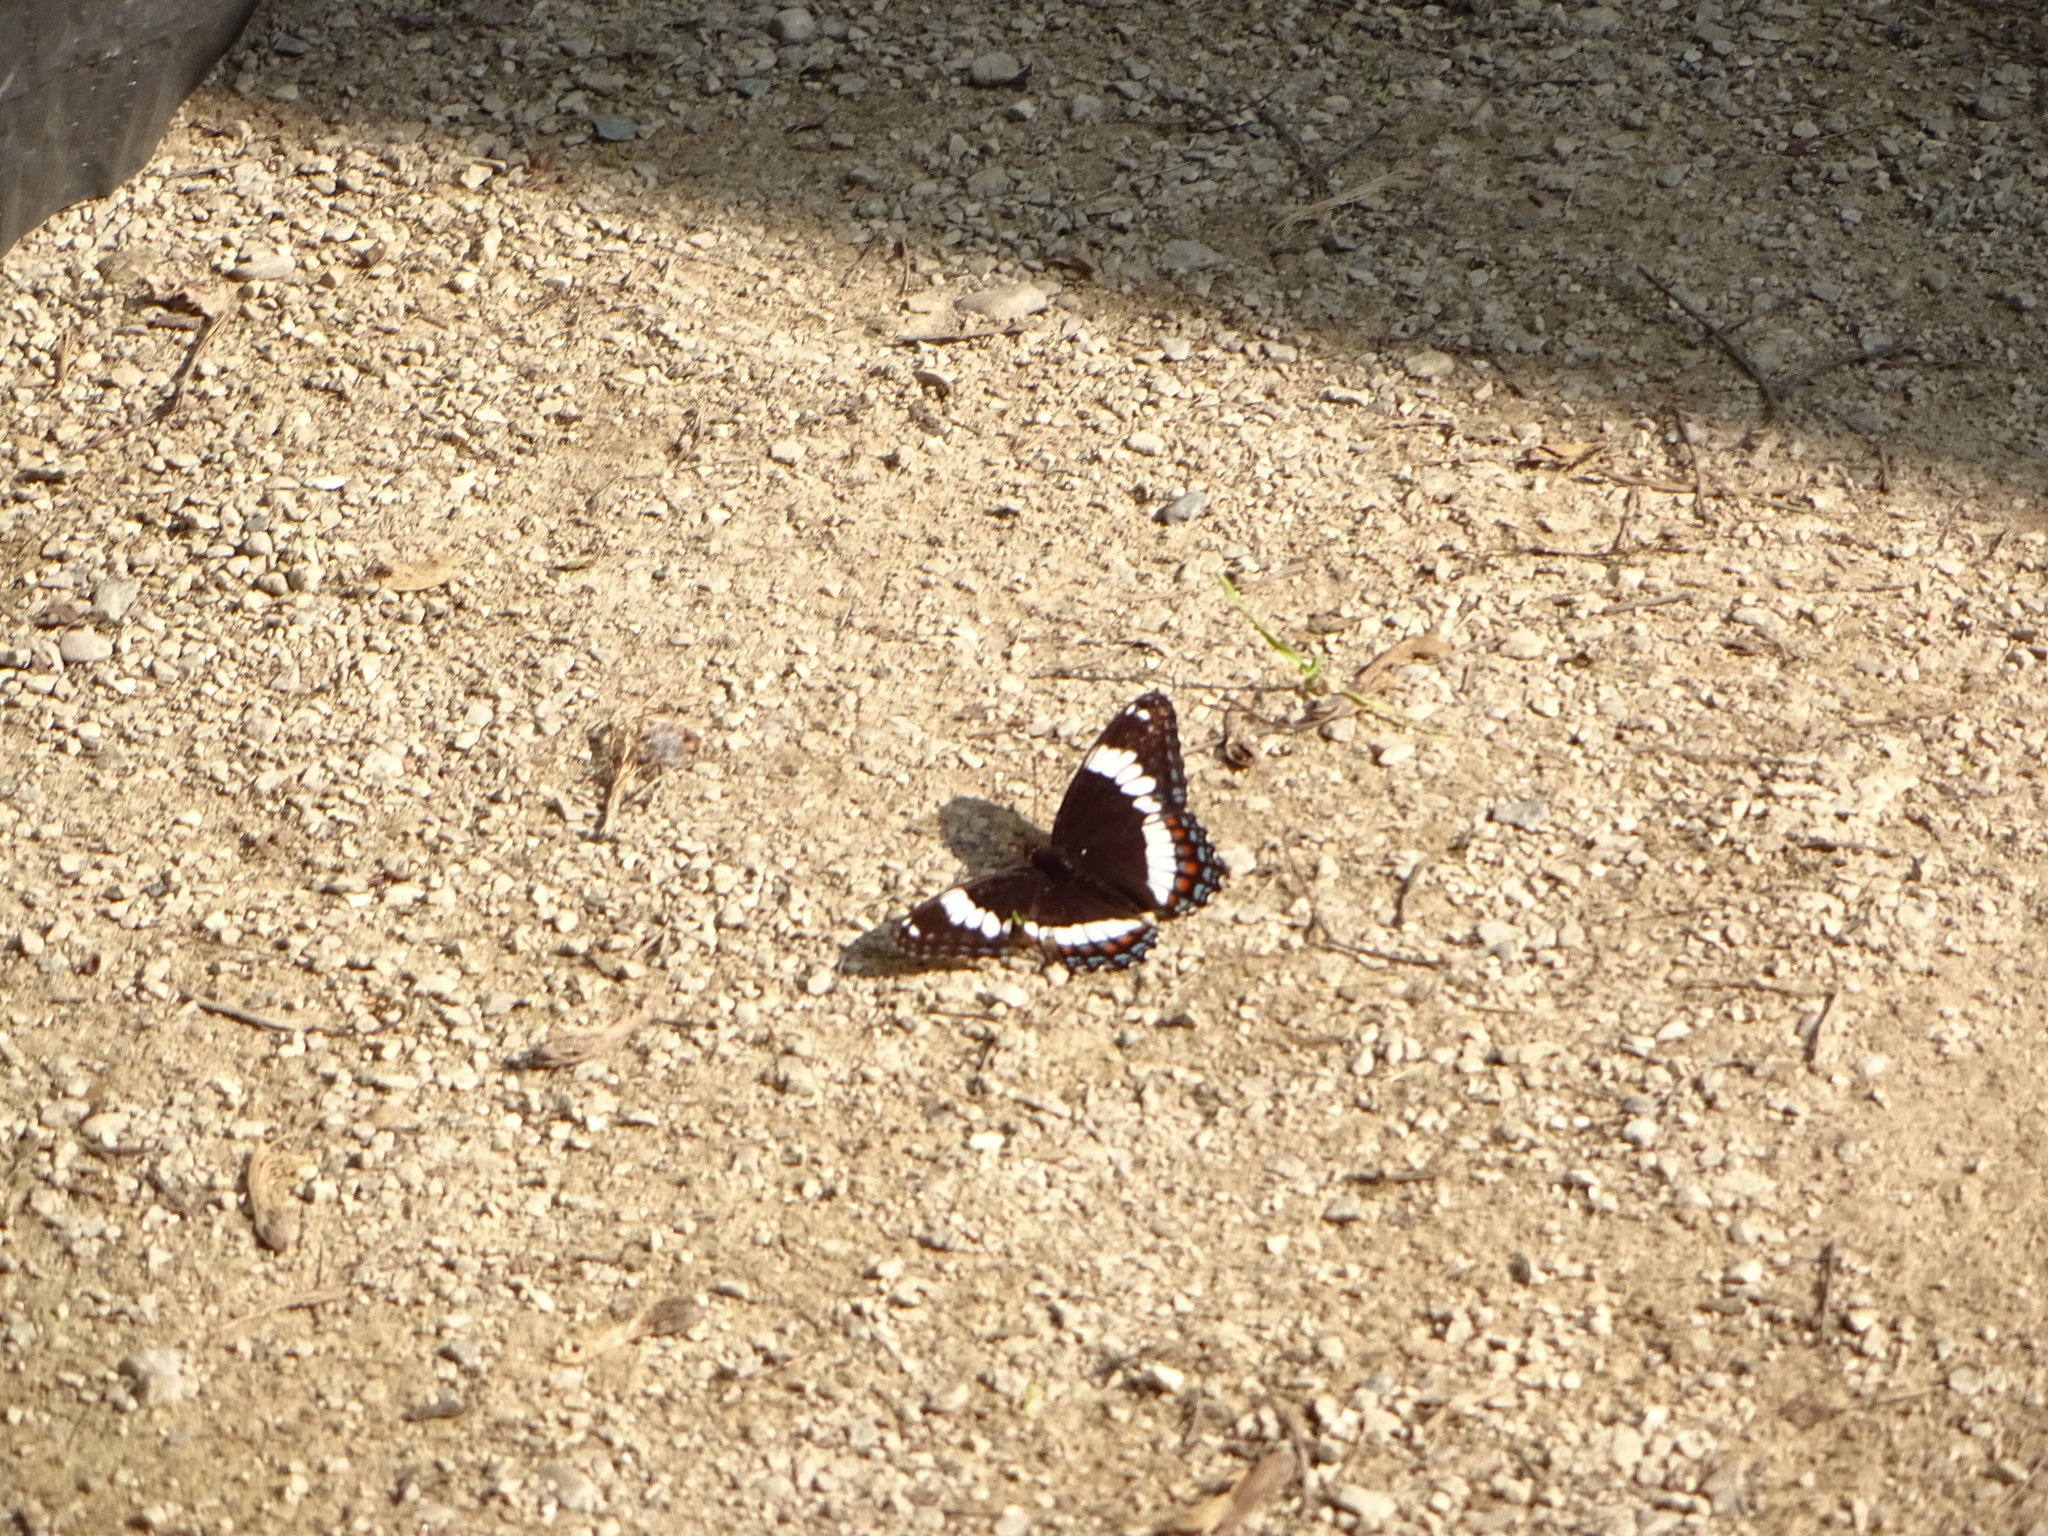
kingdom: Animalia
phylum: Arthropoda
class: Insecta
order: Lepidoptera
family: Nymphalidae
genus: Limenitis
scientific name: Limenitis arthemis
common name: Red-spotted admiral
